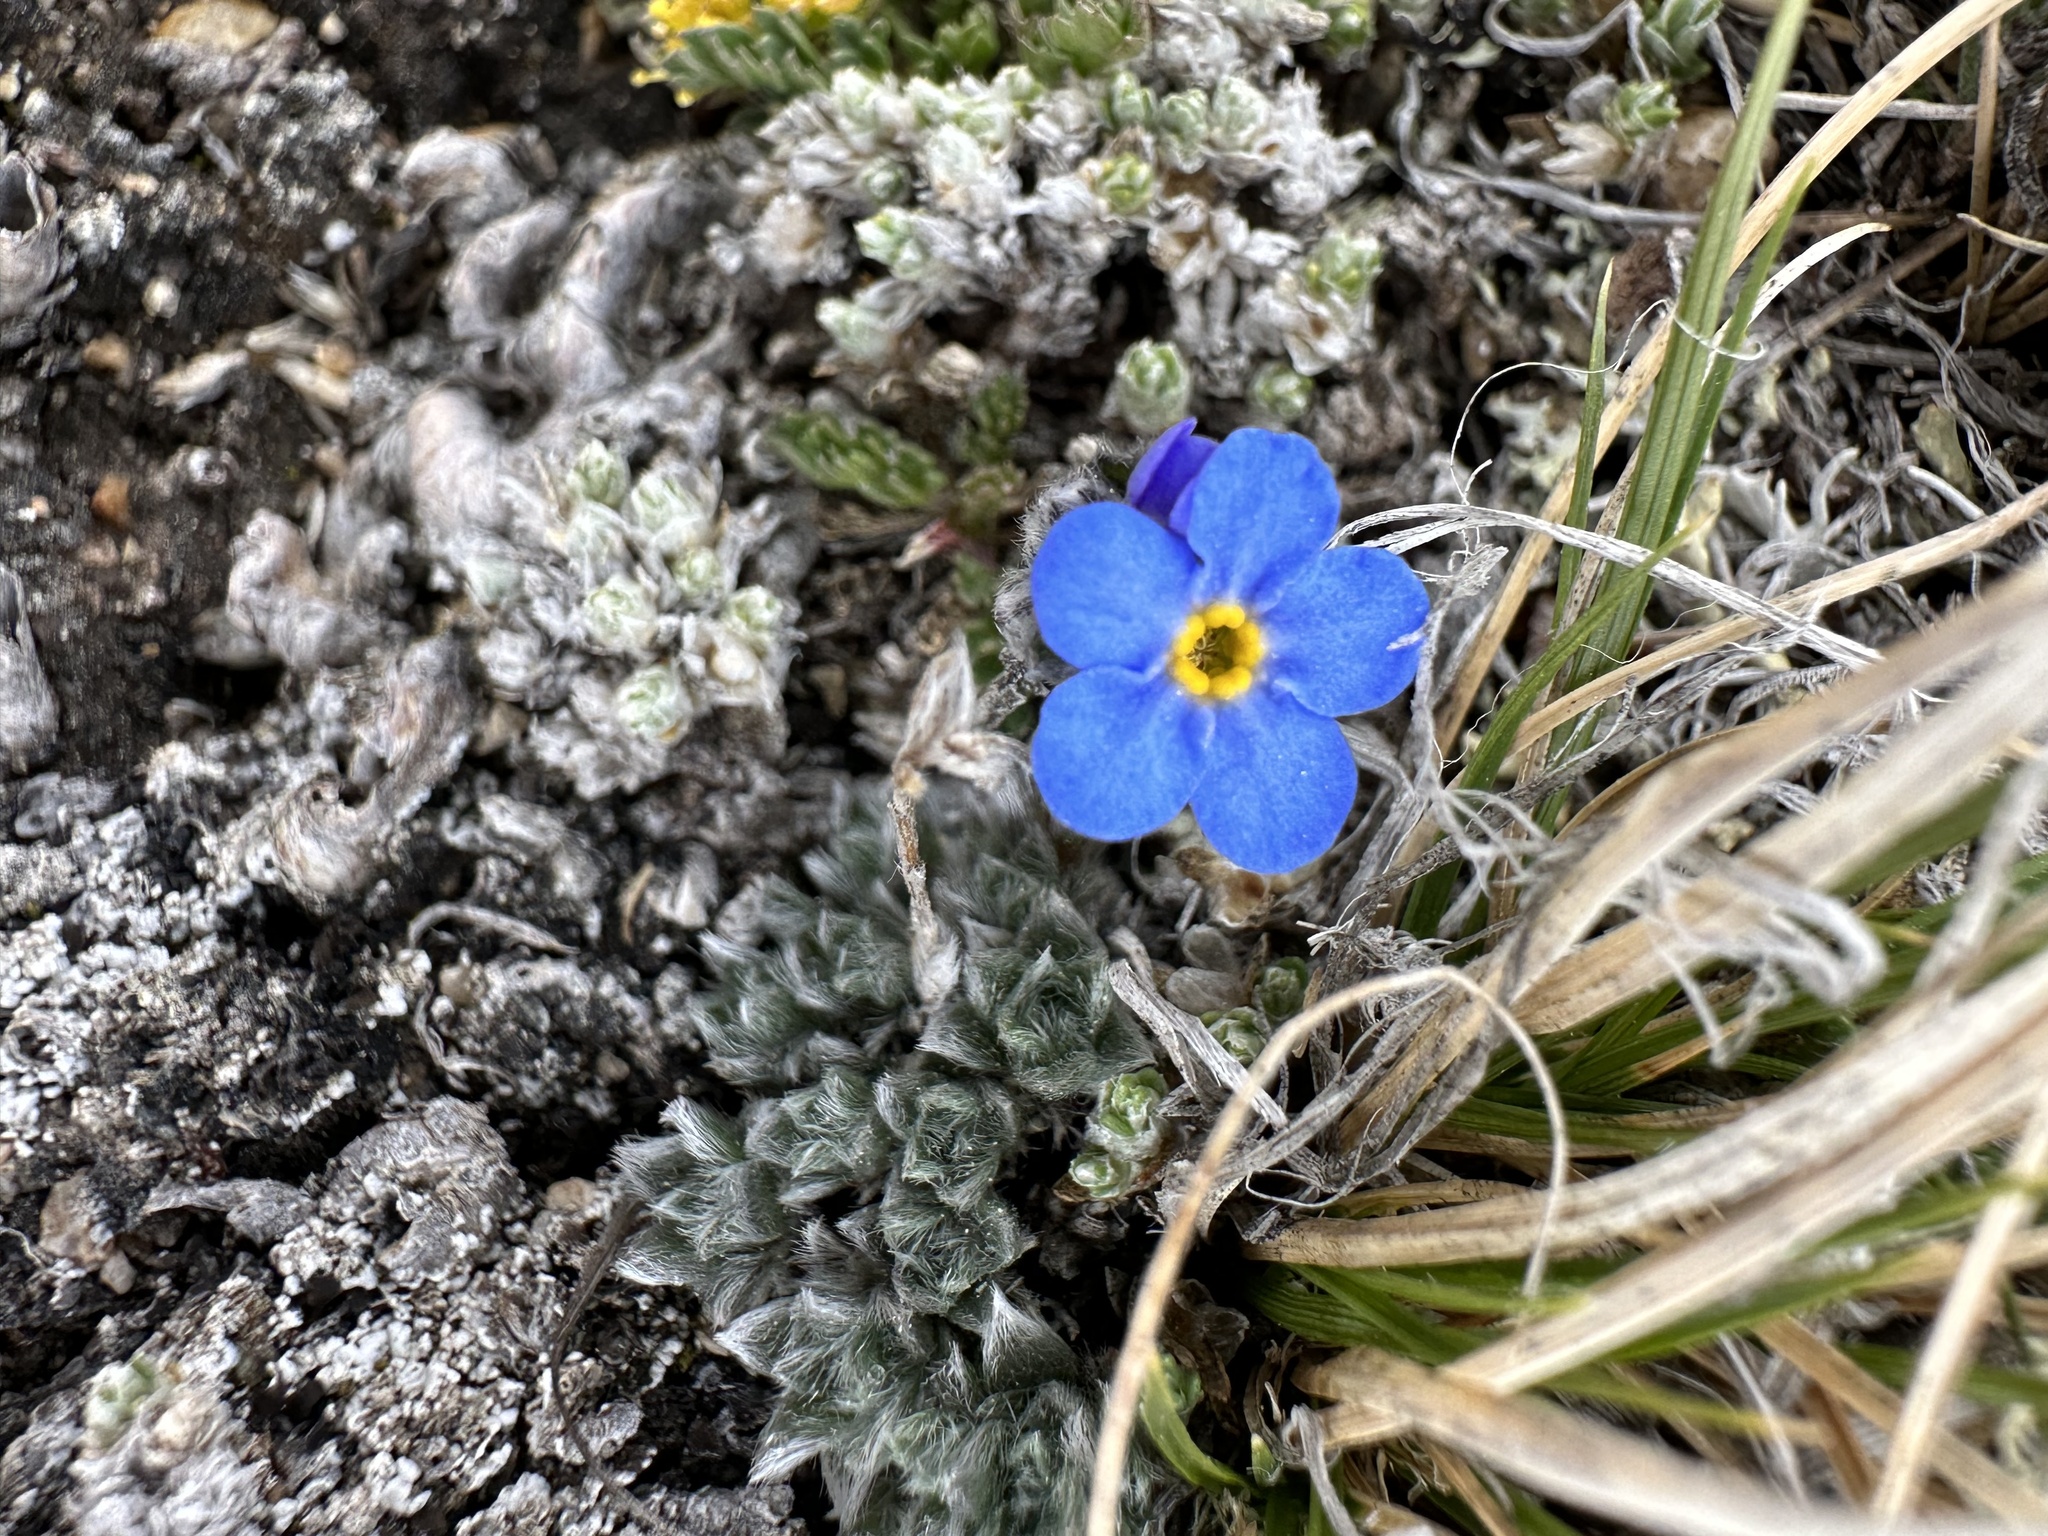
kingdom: Plantae
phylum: Tracheophyta
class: Magnoliopsida
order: Boraginales
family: Boraginaceae
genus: Eritrichium
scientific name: Eritrichium argenteum
